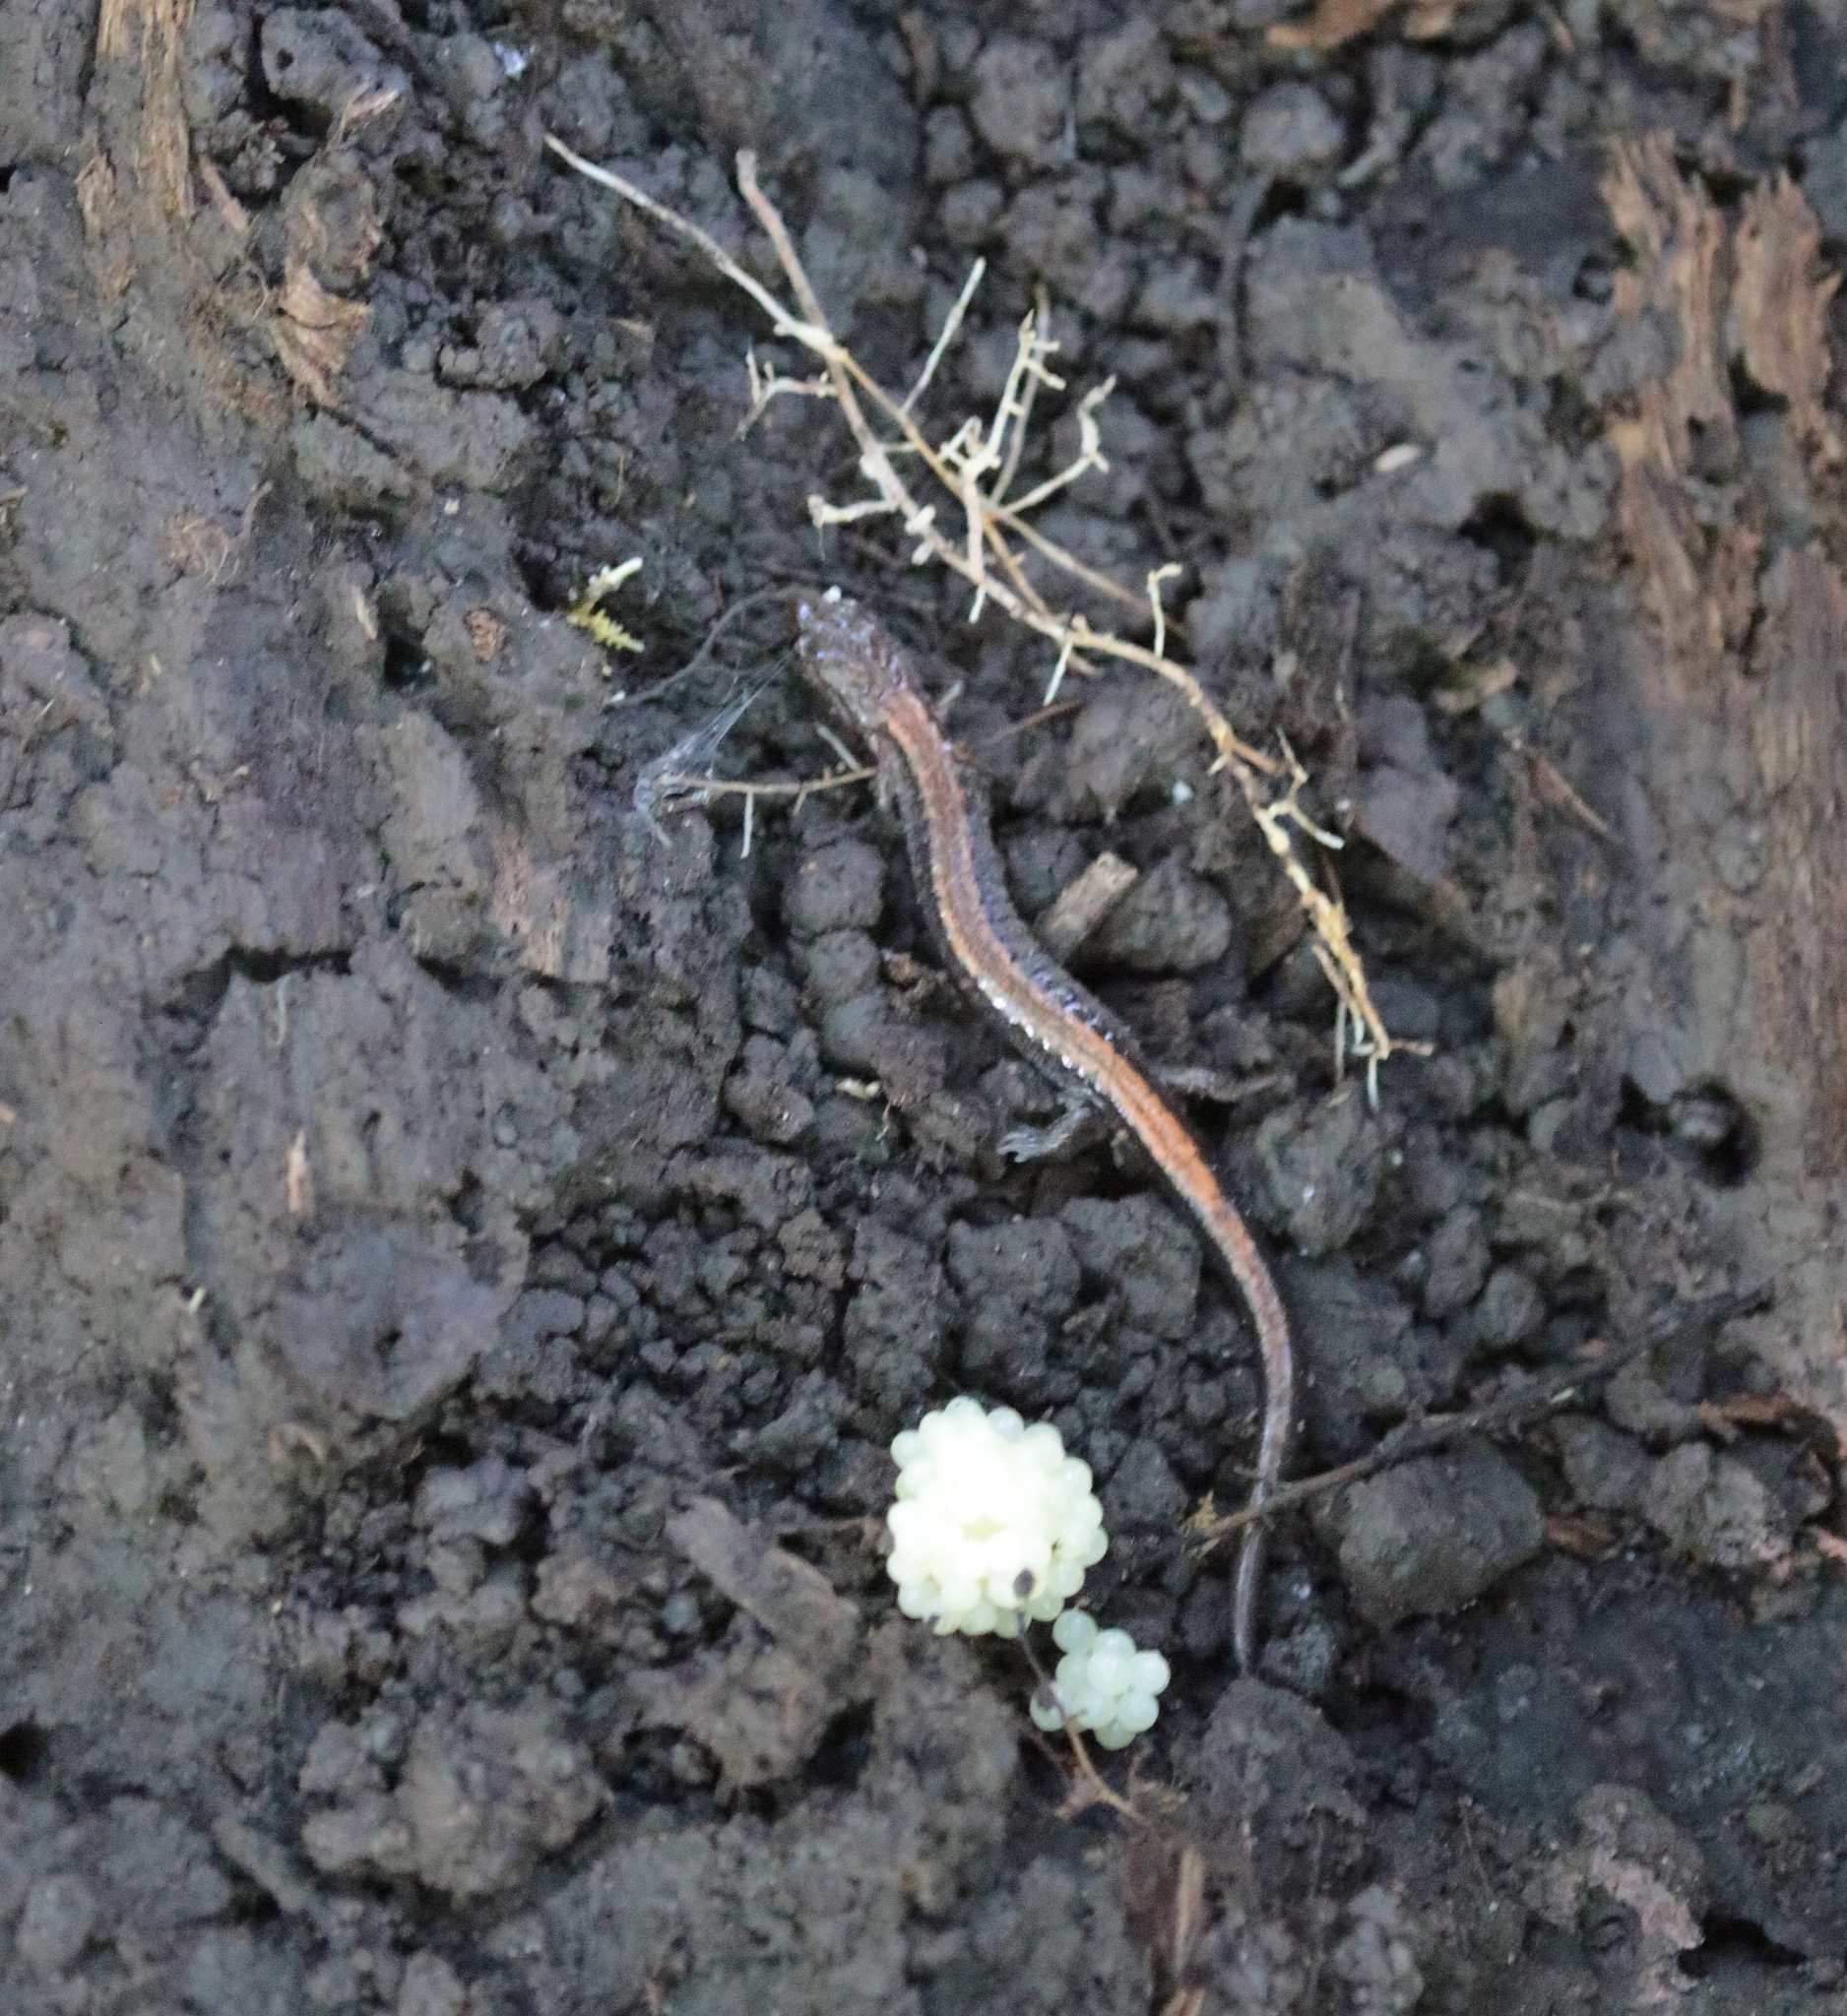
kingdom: Animalia
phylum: Chordata
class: Amphibia
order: Caudata
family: Plethodontidae
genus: Plethodon
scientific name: Plethodon cinereus
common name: Redback salamander
